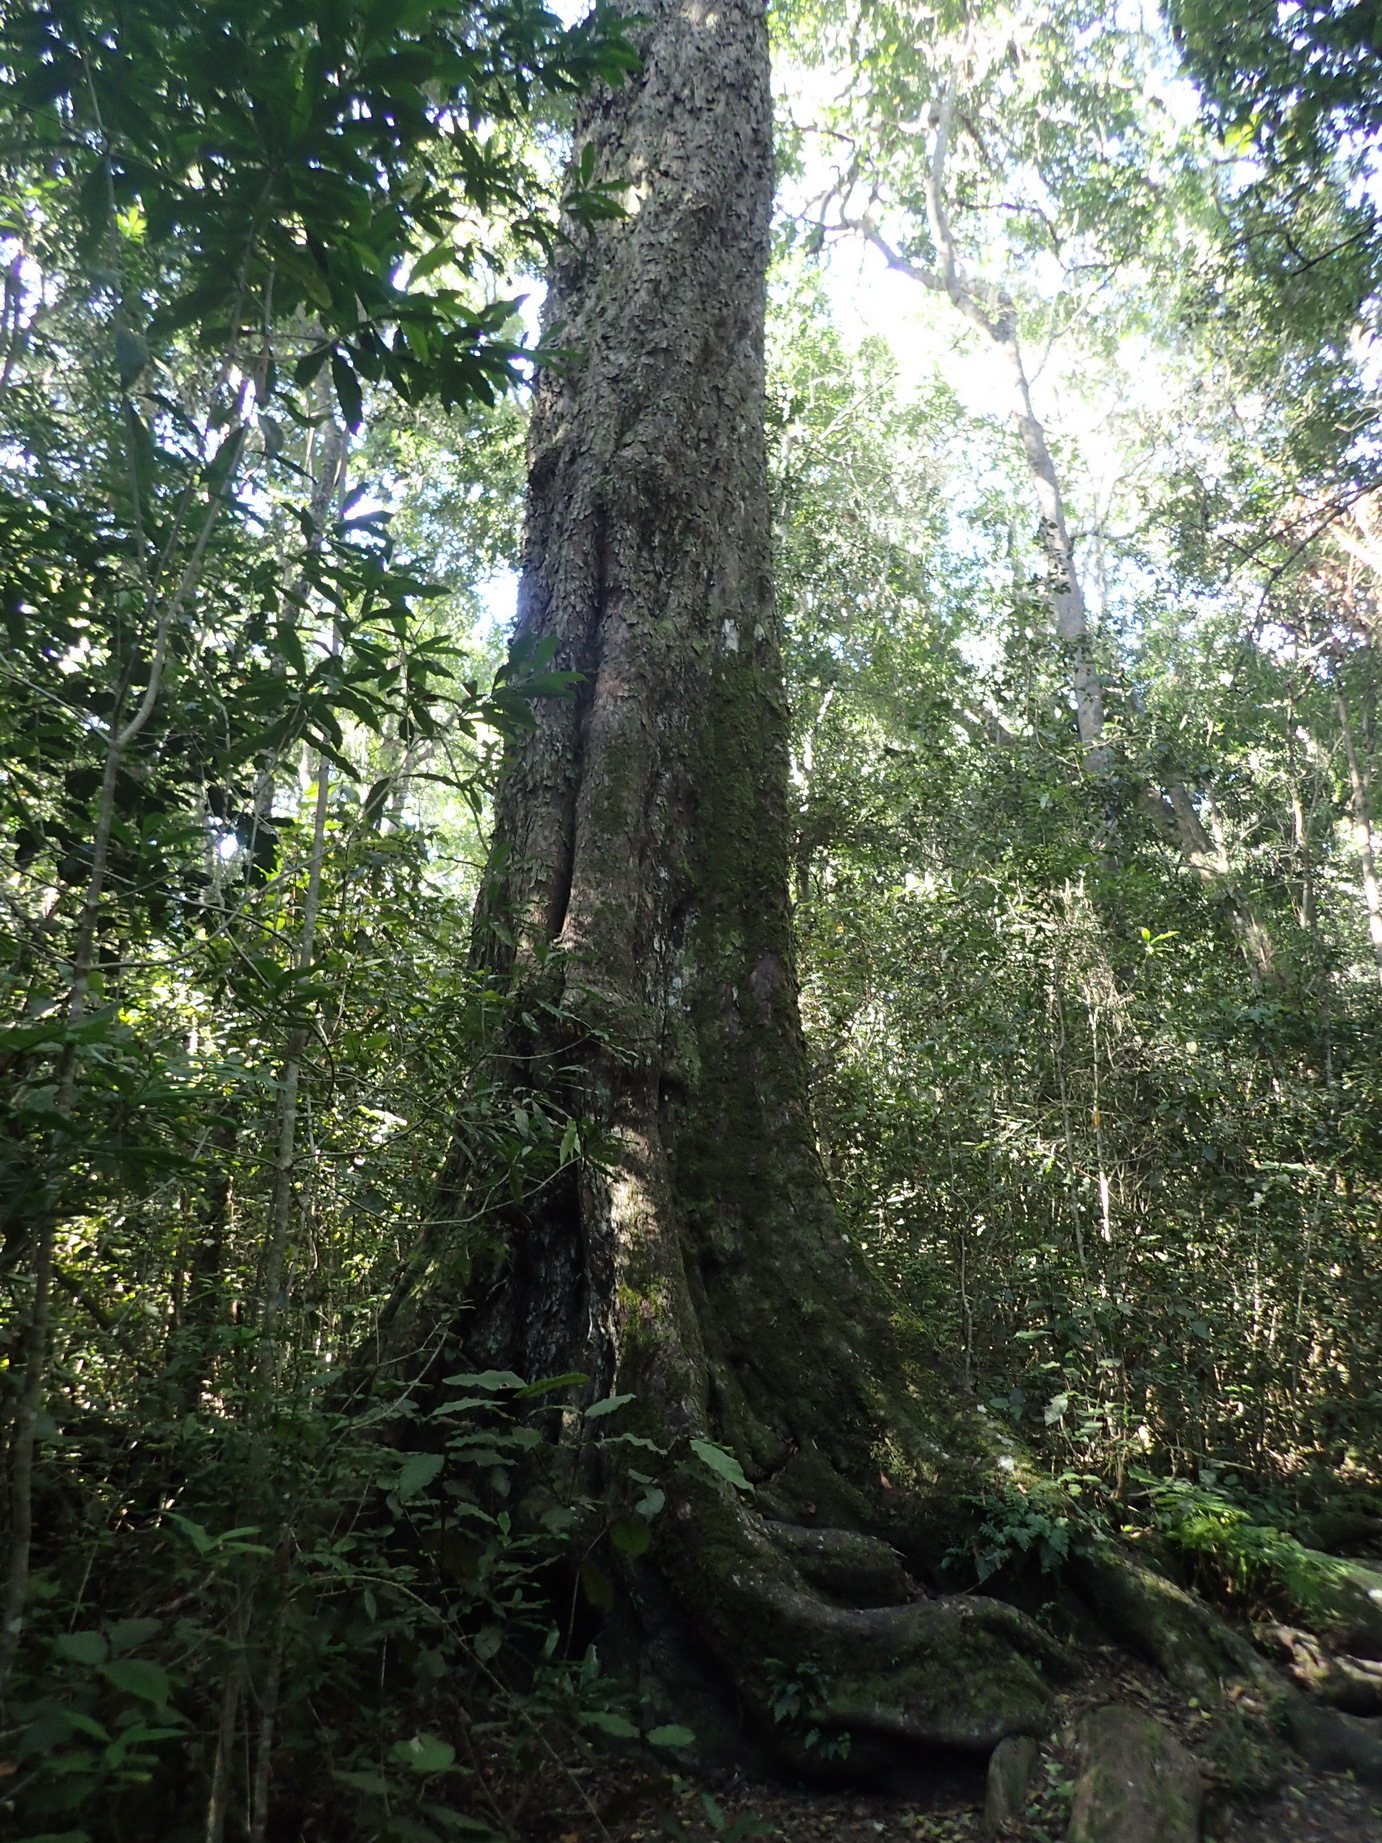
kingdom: Plantae
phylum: Tracheophyta
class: Pinopsida
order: Pinales
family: Podocarpaceae
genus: Afrocarpus
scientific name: Afrocarpus falcatus
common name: Bastard yellowwood
